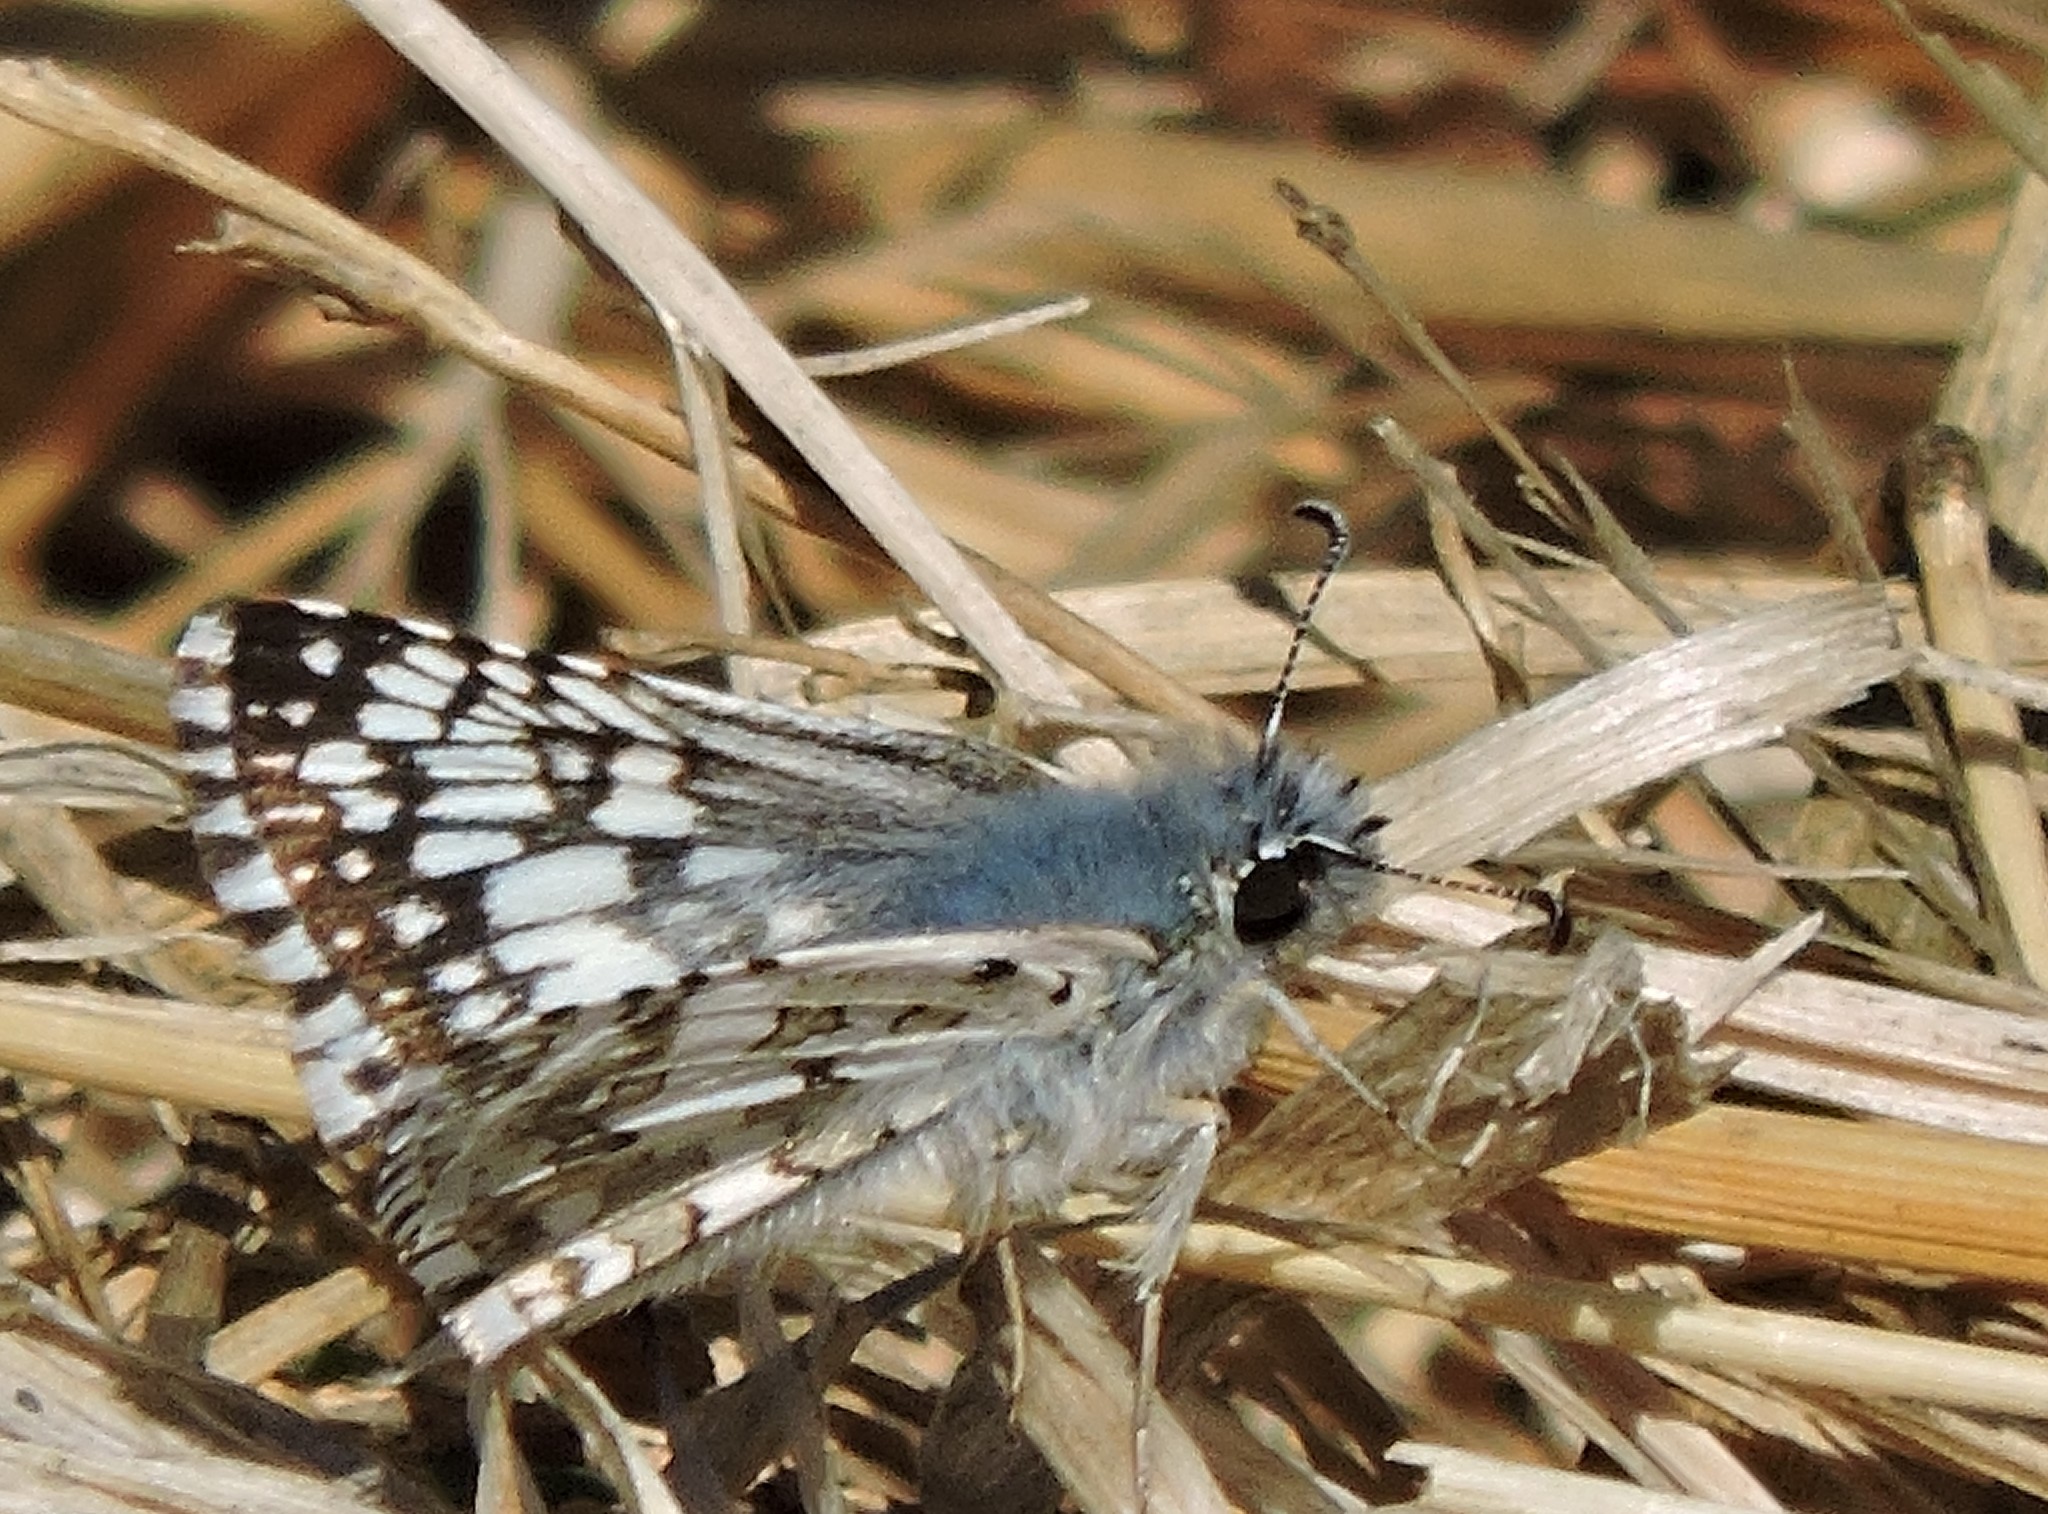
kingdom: Animalia
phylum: Arthropoda
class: Insecta
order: Lepidoptera
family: Hesperiidae
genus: Burnsius
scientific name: Burnsius communis
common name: Common checkered-skipper
